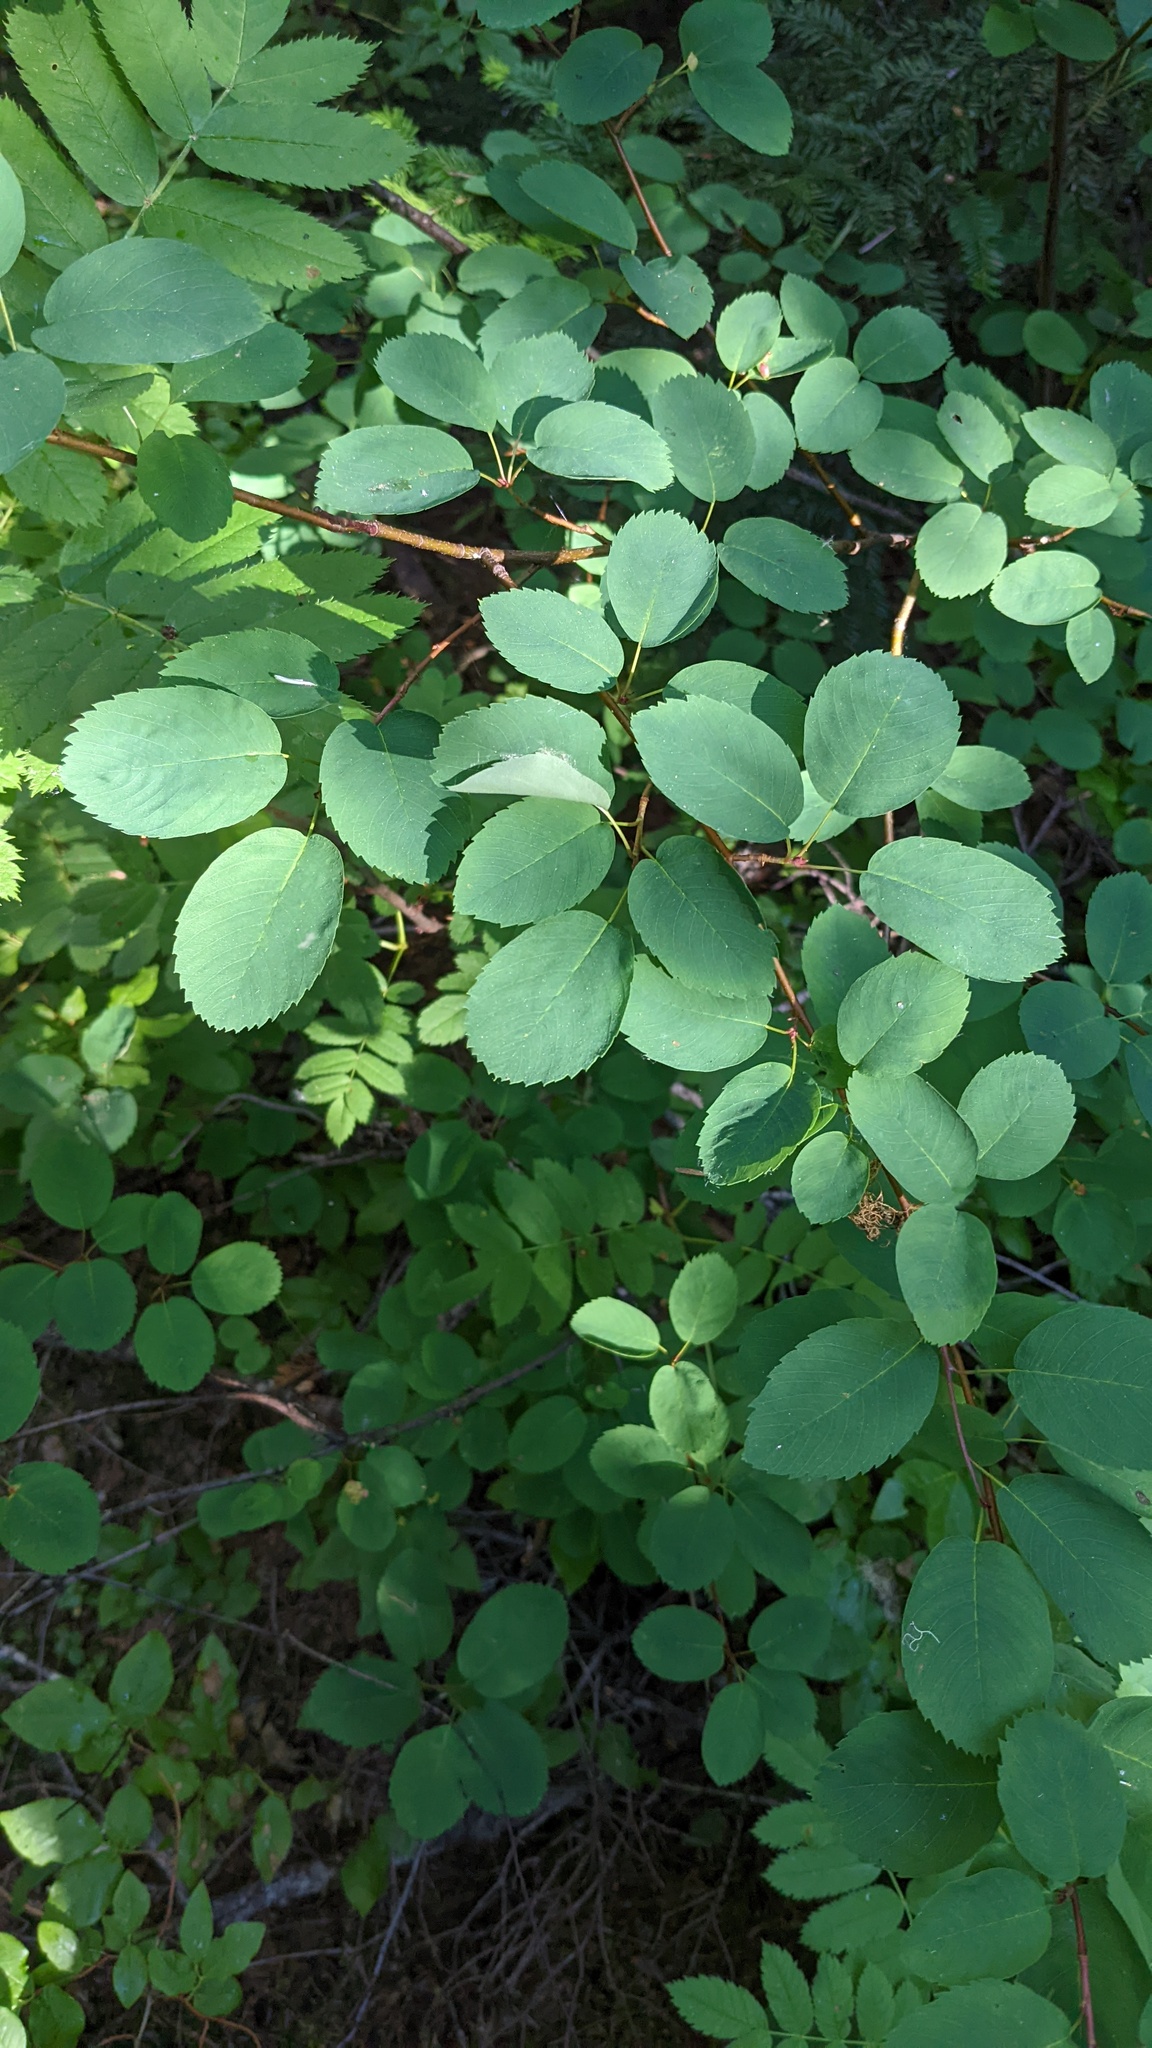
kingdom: Plantae
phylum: Tracheophyta
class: Magnoliopsida
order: Rosales
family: Rosaceae
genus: Amelanchier
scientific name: Amelanchier alnifolia
